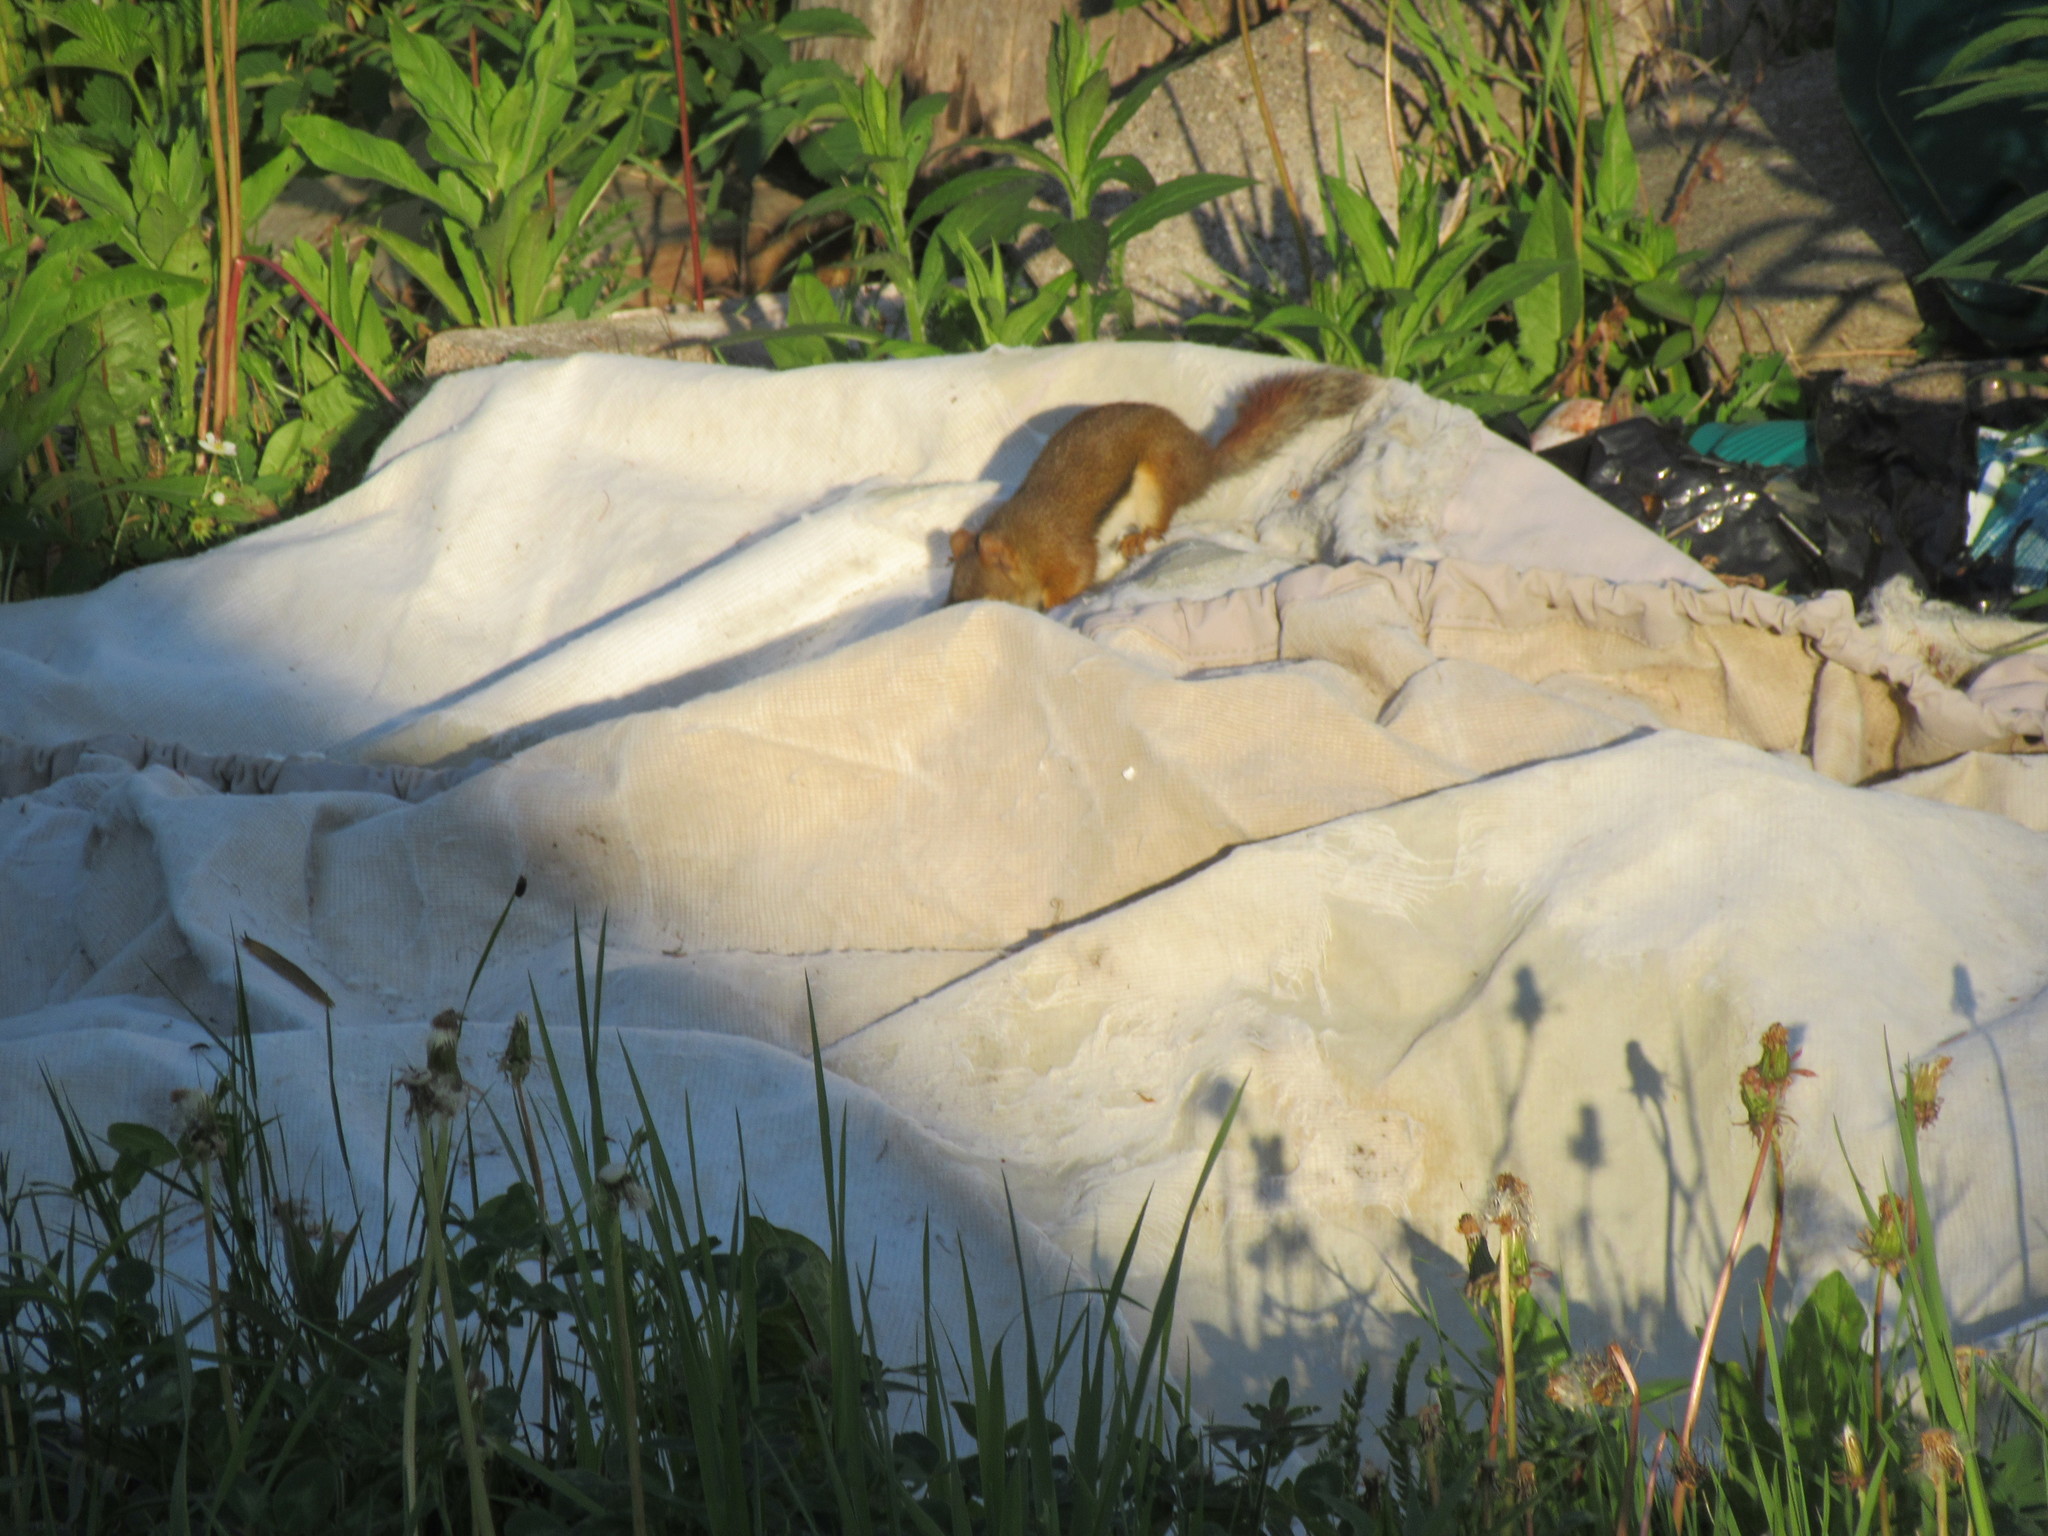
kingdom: Animalia
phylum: Chordata
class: Mammalia
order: Rodentia
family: Sciuridae
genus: Tamiasciurus
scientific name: Tamiasciurus hudsonicus
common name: Red squirrel
